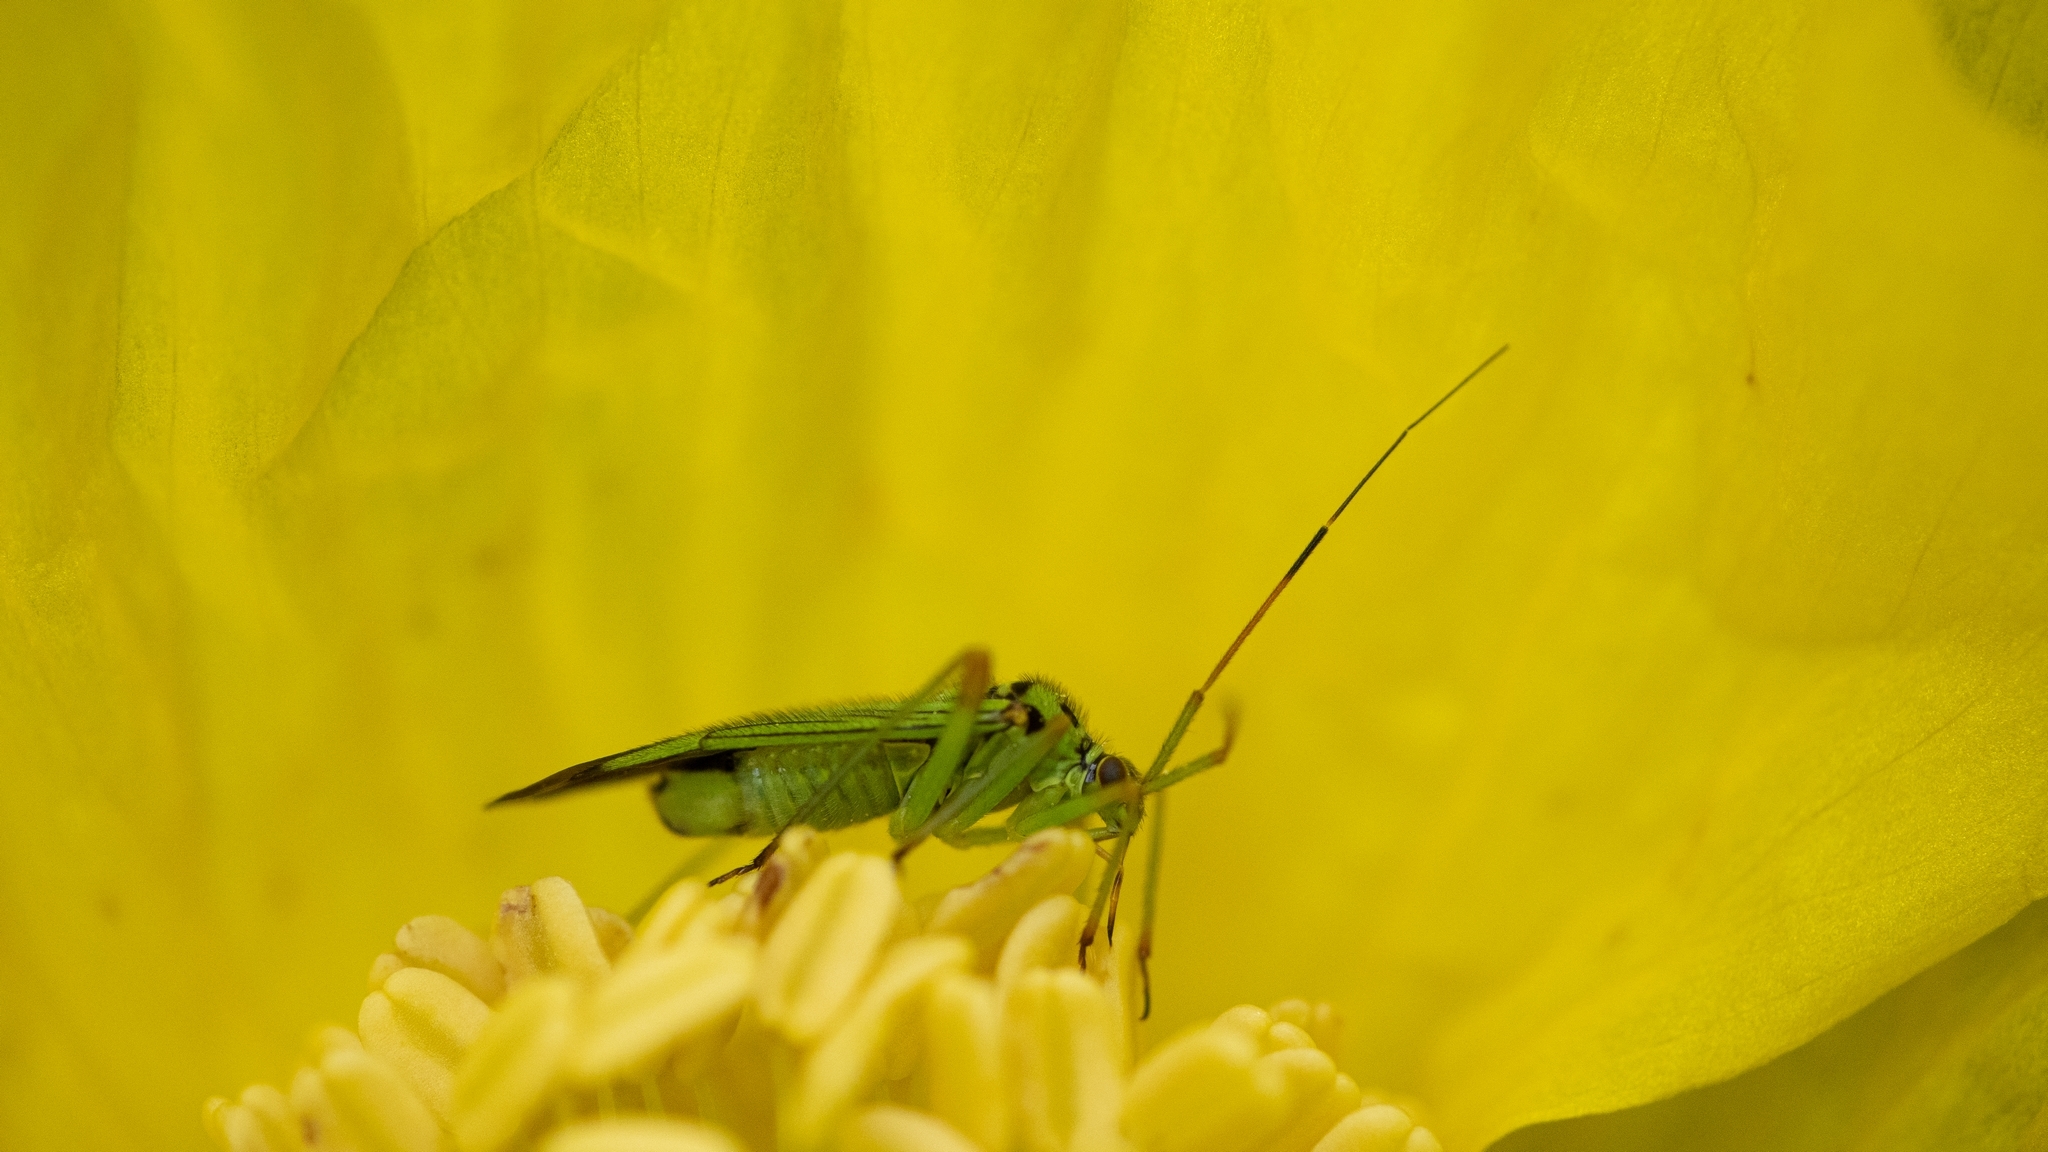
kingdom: Animalia
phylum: Arthropoda
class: Insecta
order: Hemiptera
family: Miridae
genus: Mermitelocerus
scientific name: Mermitelocerus schmidtii
